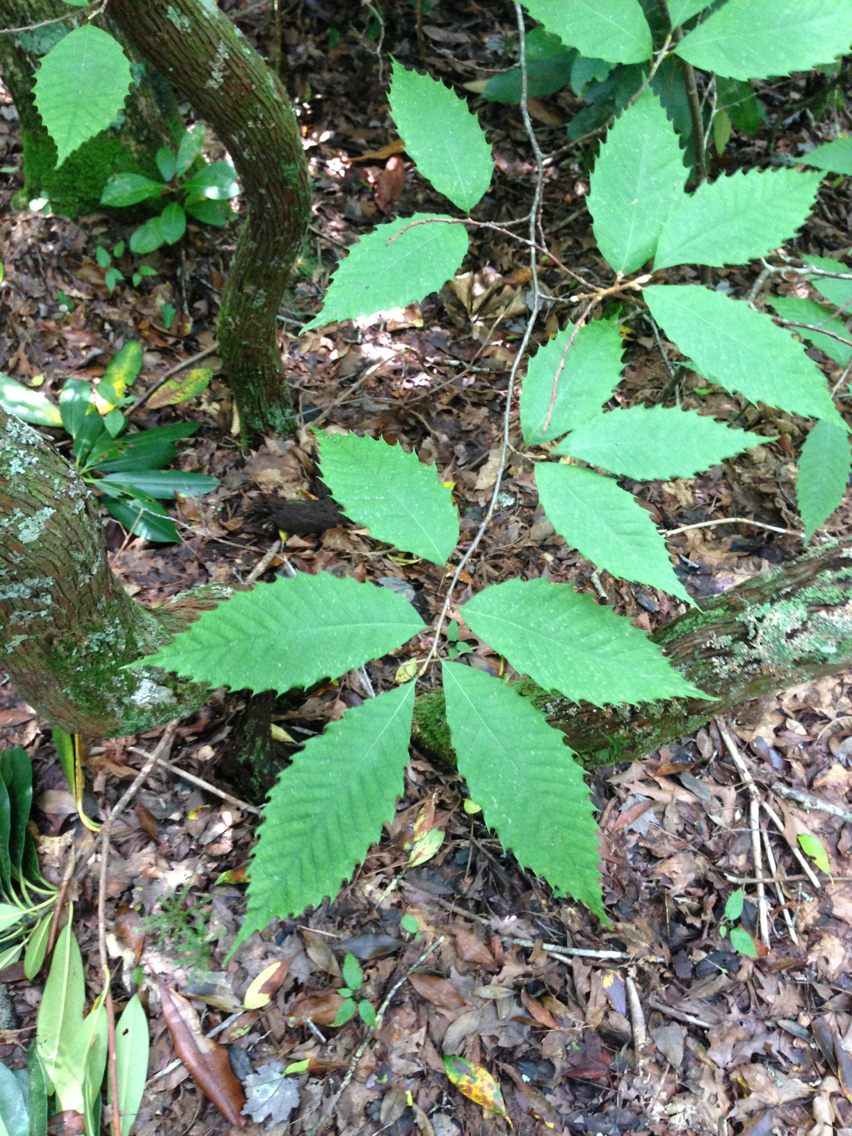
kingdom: Plantae
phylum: Tracheophyta
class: Magnoliopsida
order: Fagales
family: Fagaceae
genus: Castanea
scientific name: Castanea dentata
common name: American chestnut
